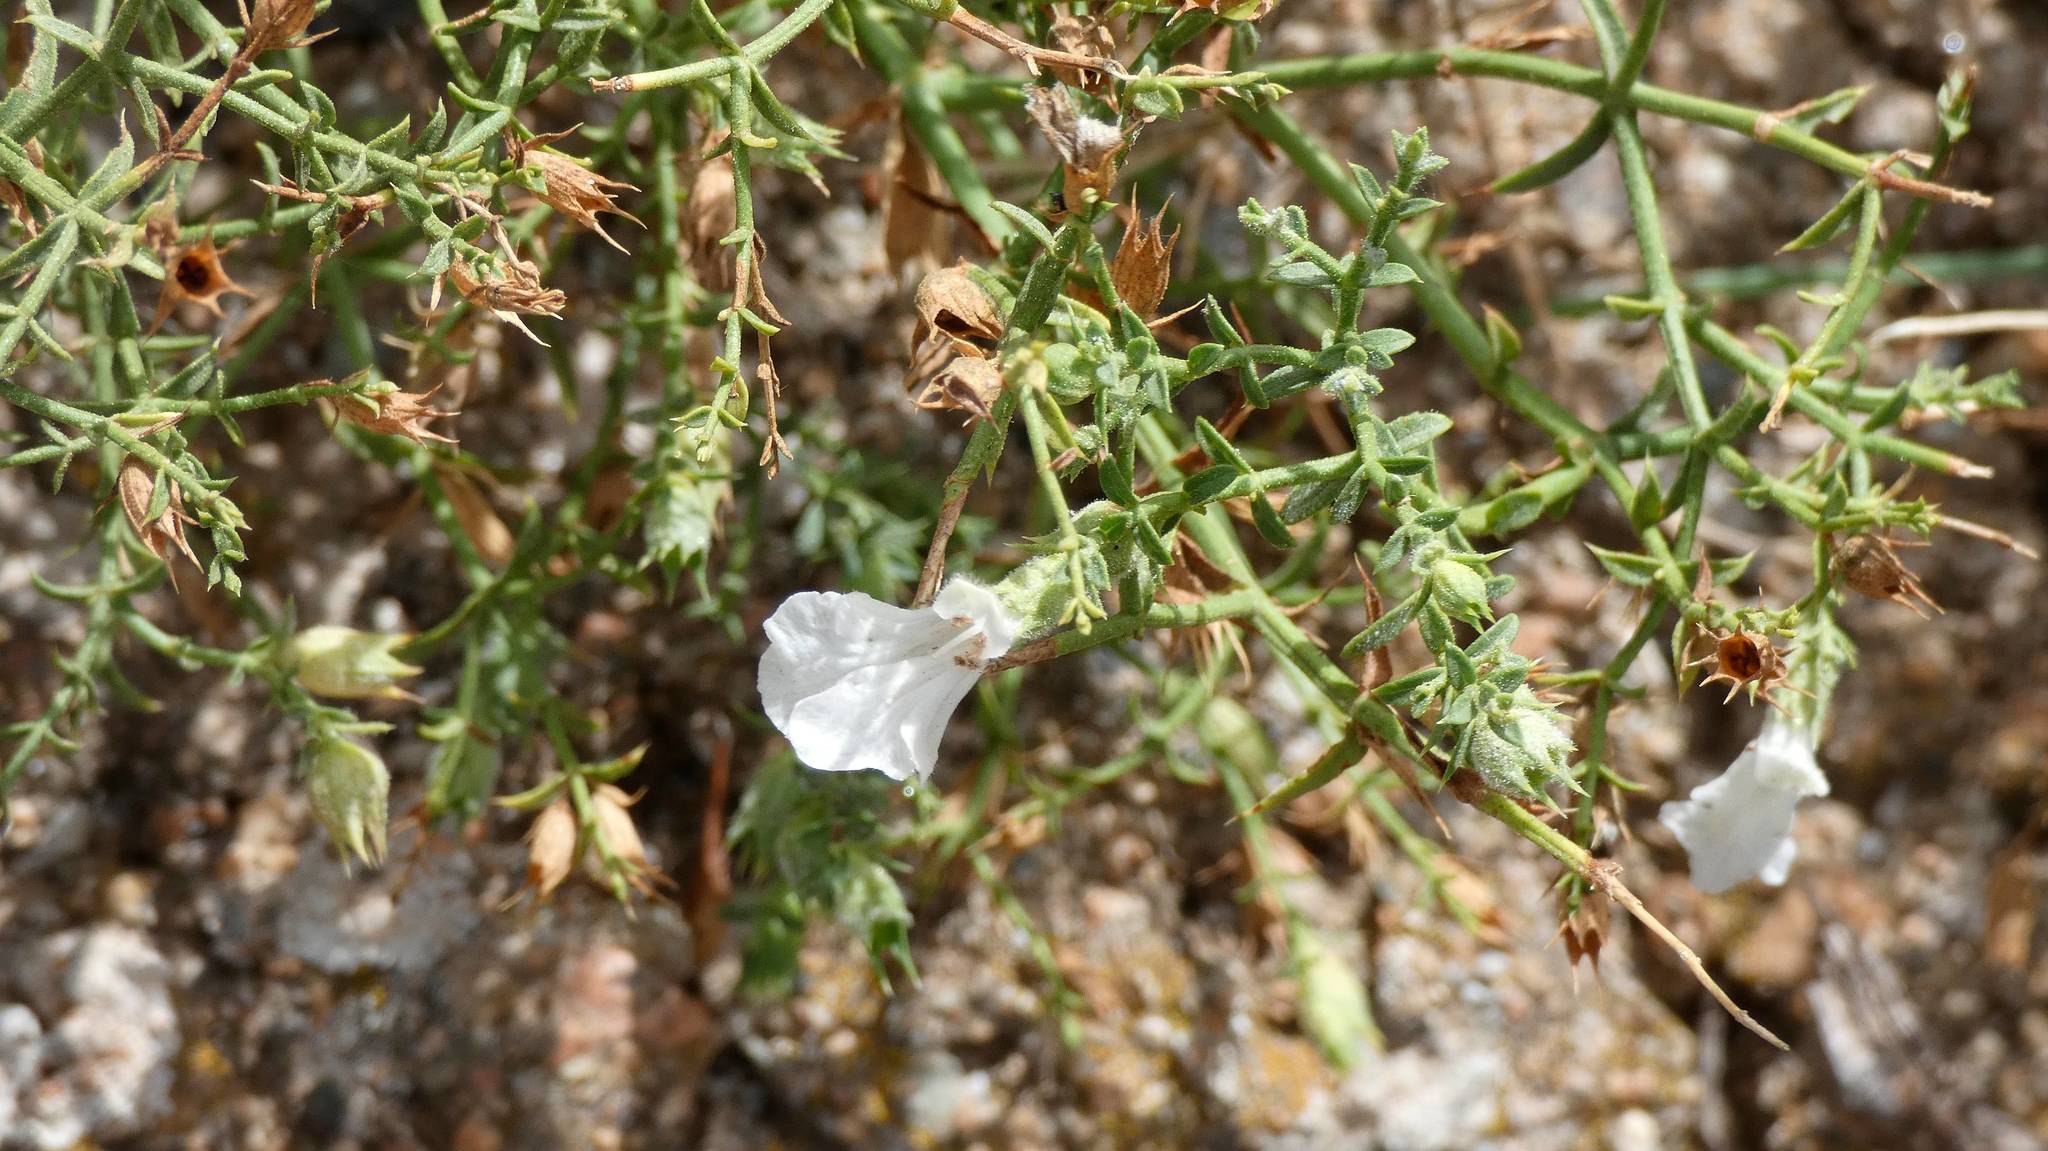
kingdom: Plantae
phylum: Tracheophyta
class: Magnoliopsida
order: Lamiales
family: Lamiaceae
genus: Stachys
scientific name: Stachys glutinosa
